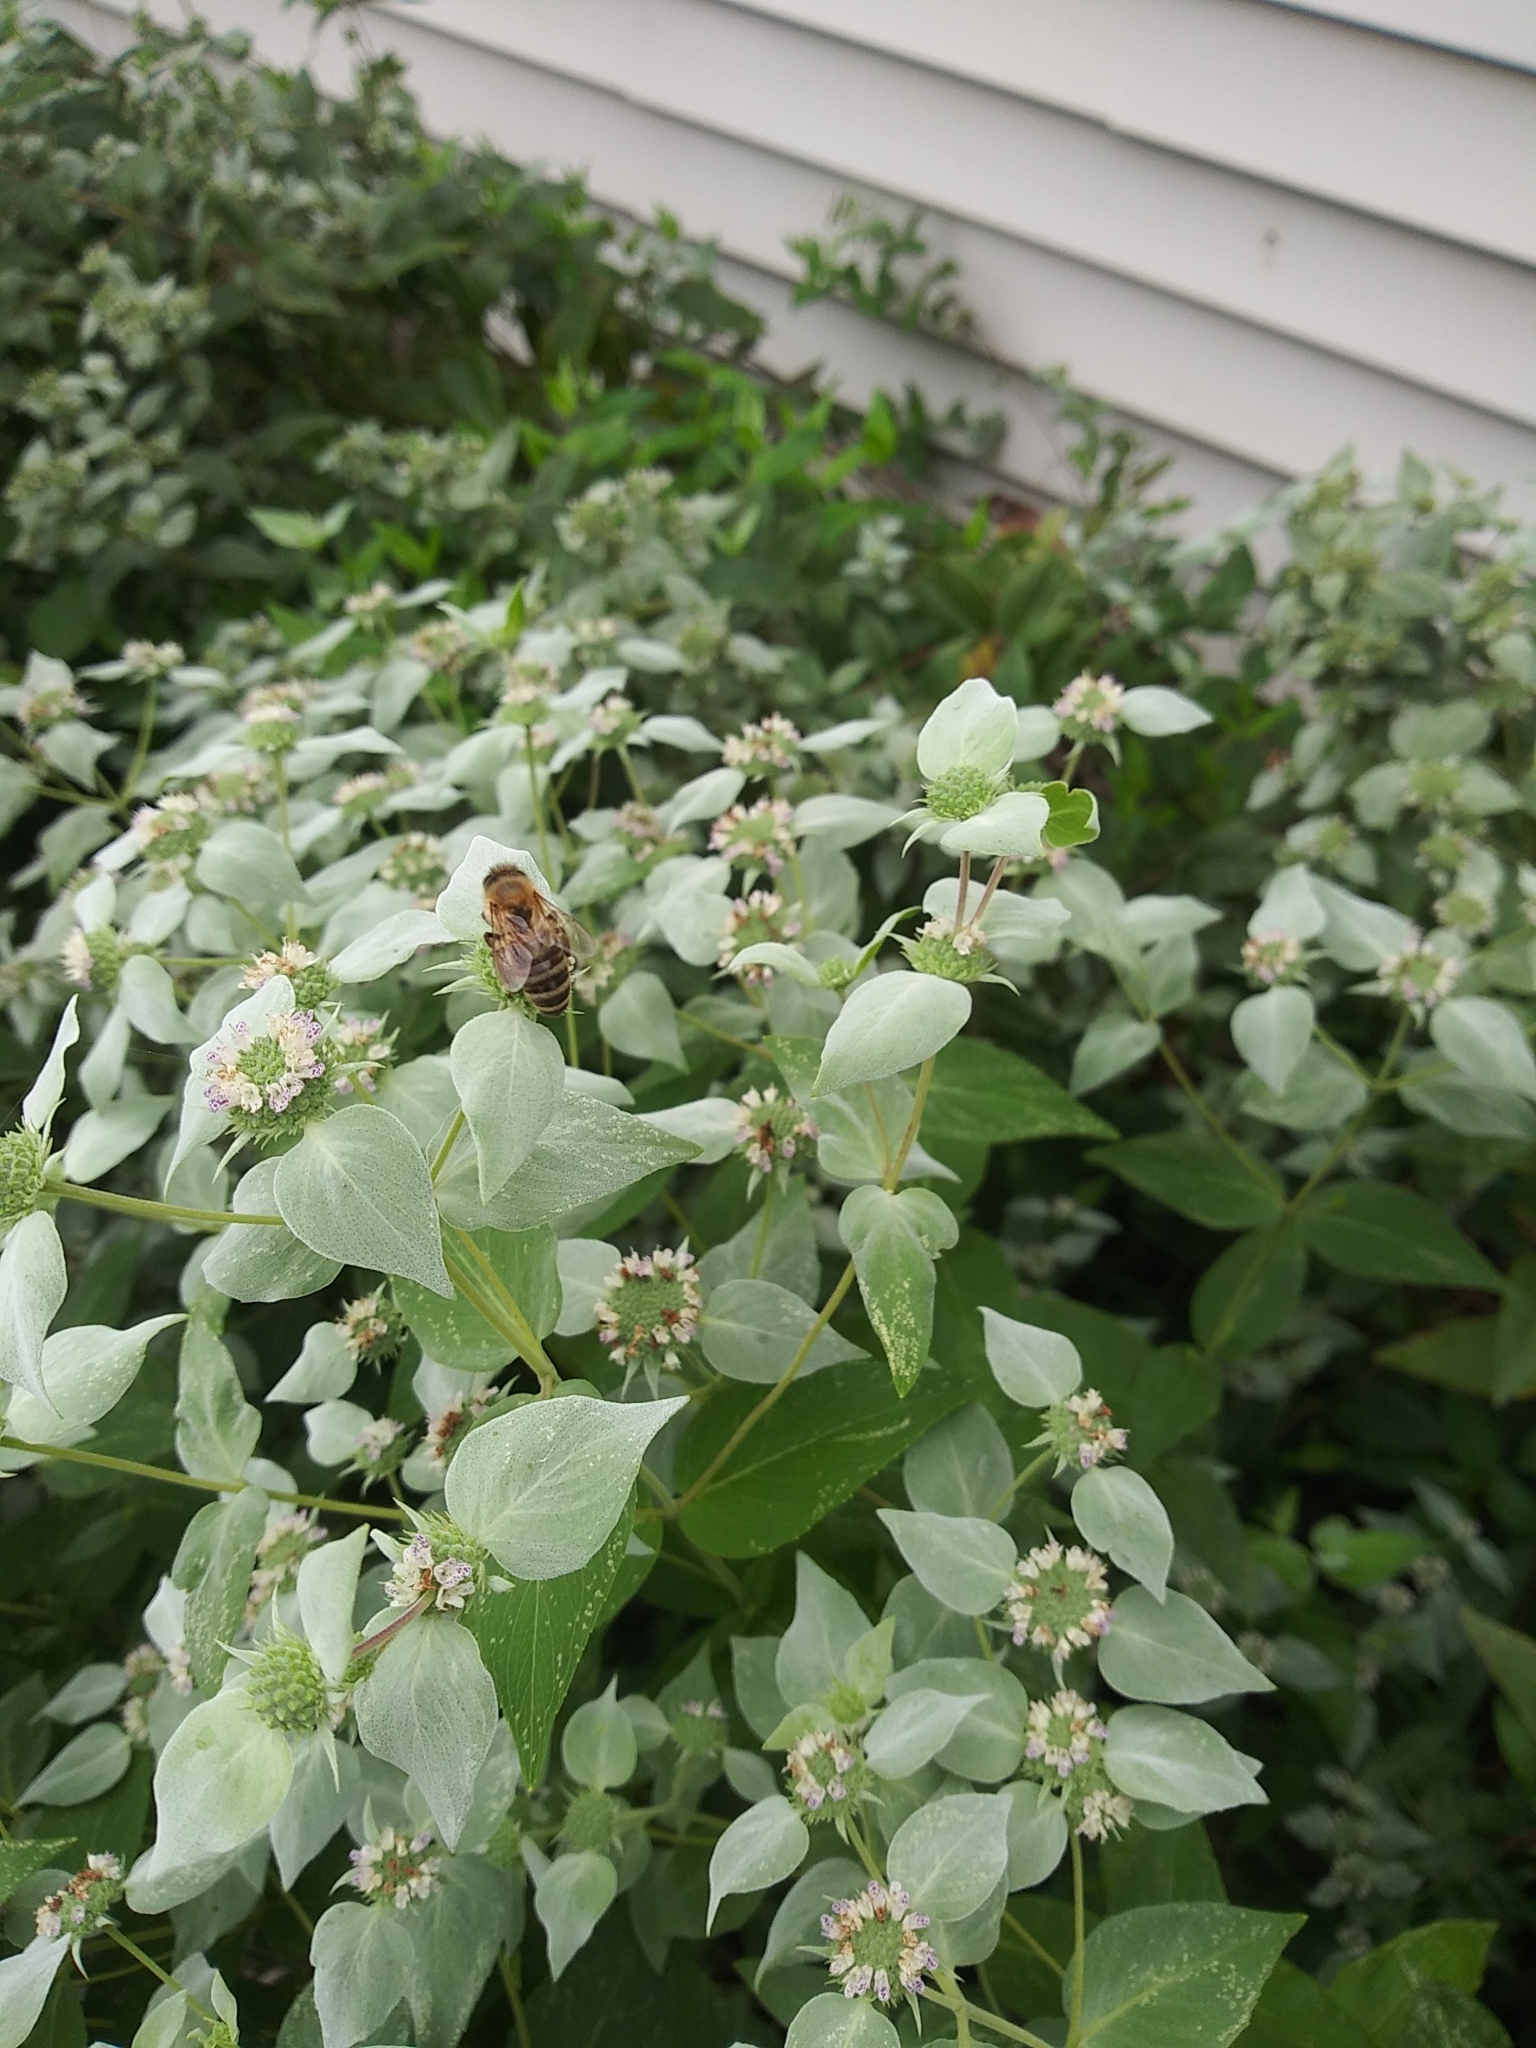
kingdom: Animalia
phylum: Arthropoda
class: Insecta
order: Hymenoptera
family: Apidae
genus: Apis
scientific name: Apis mellifera
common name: Honey bee
